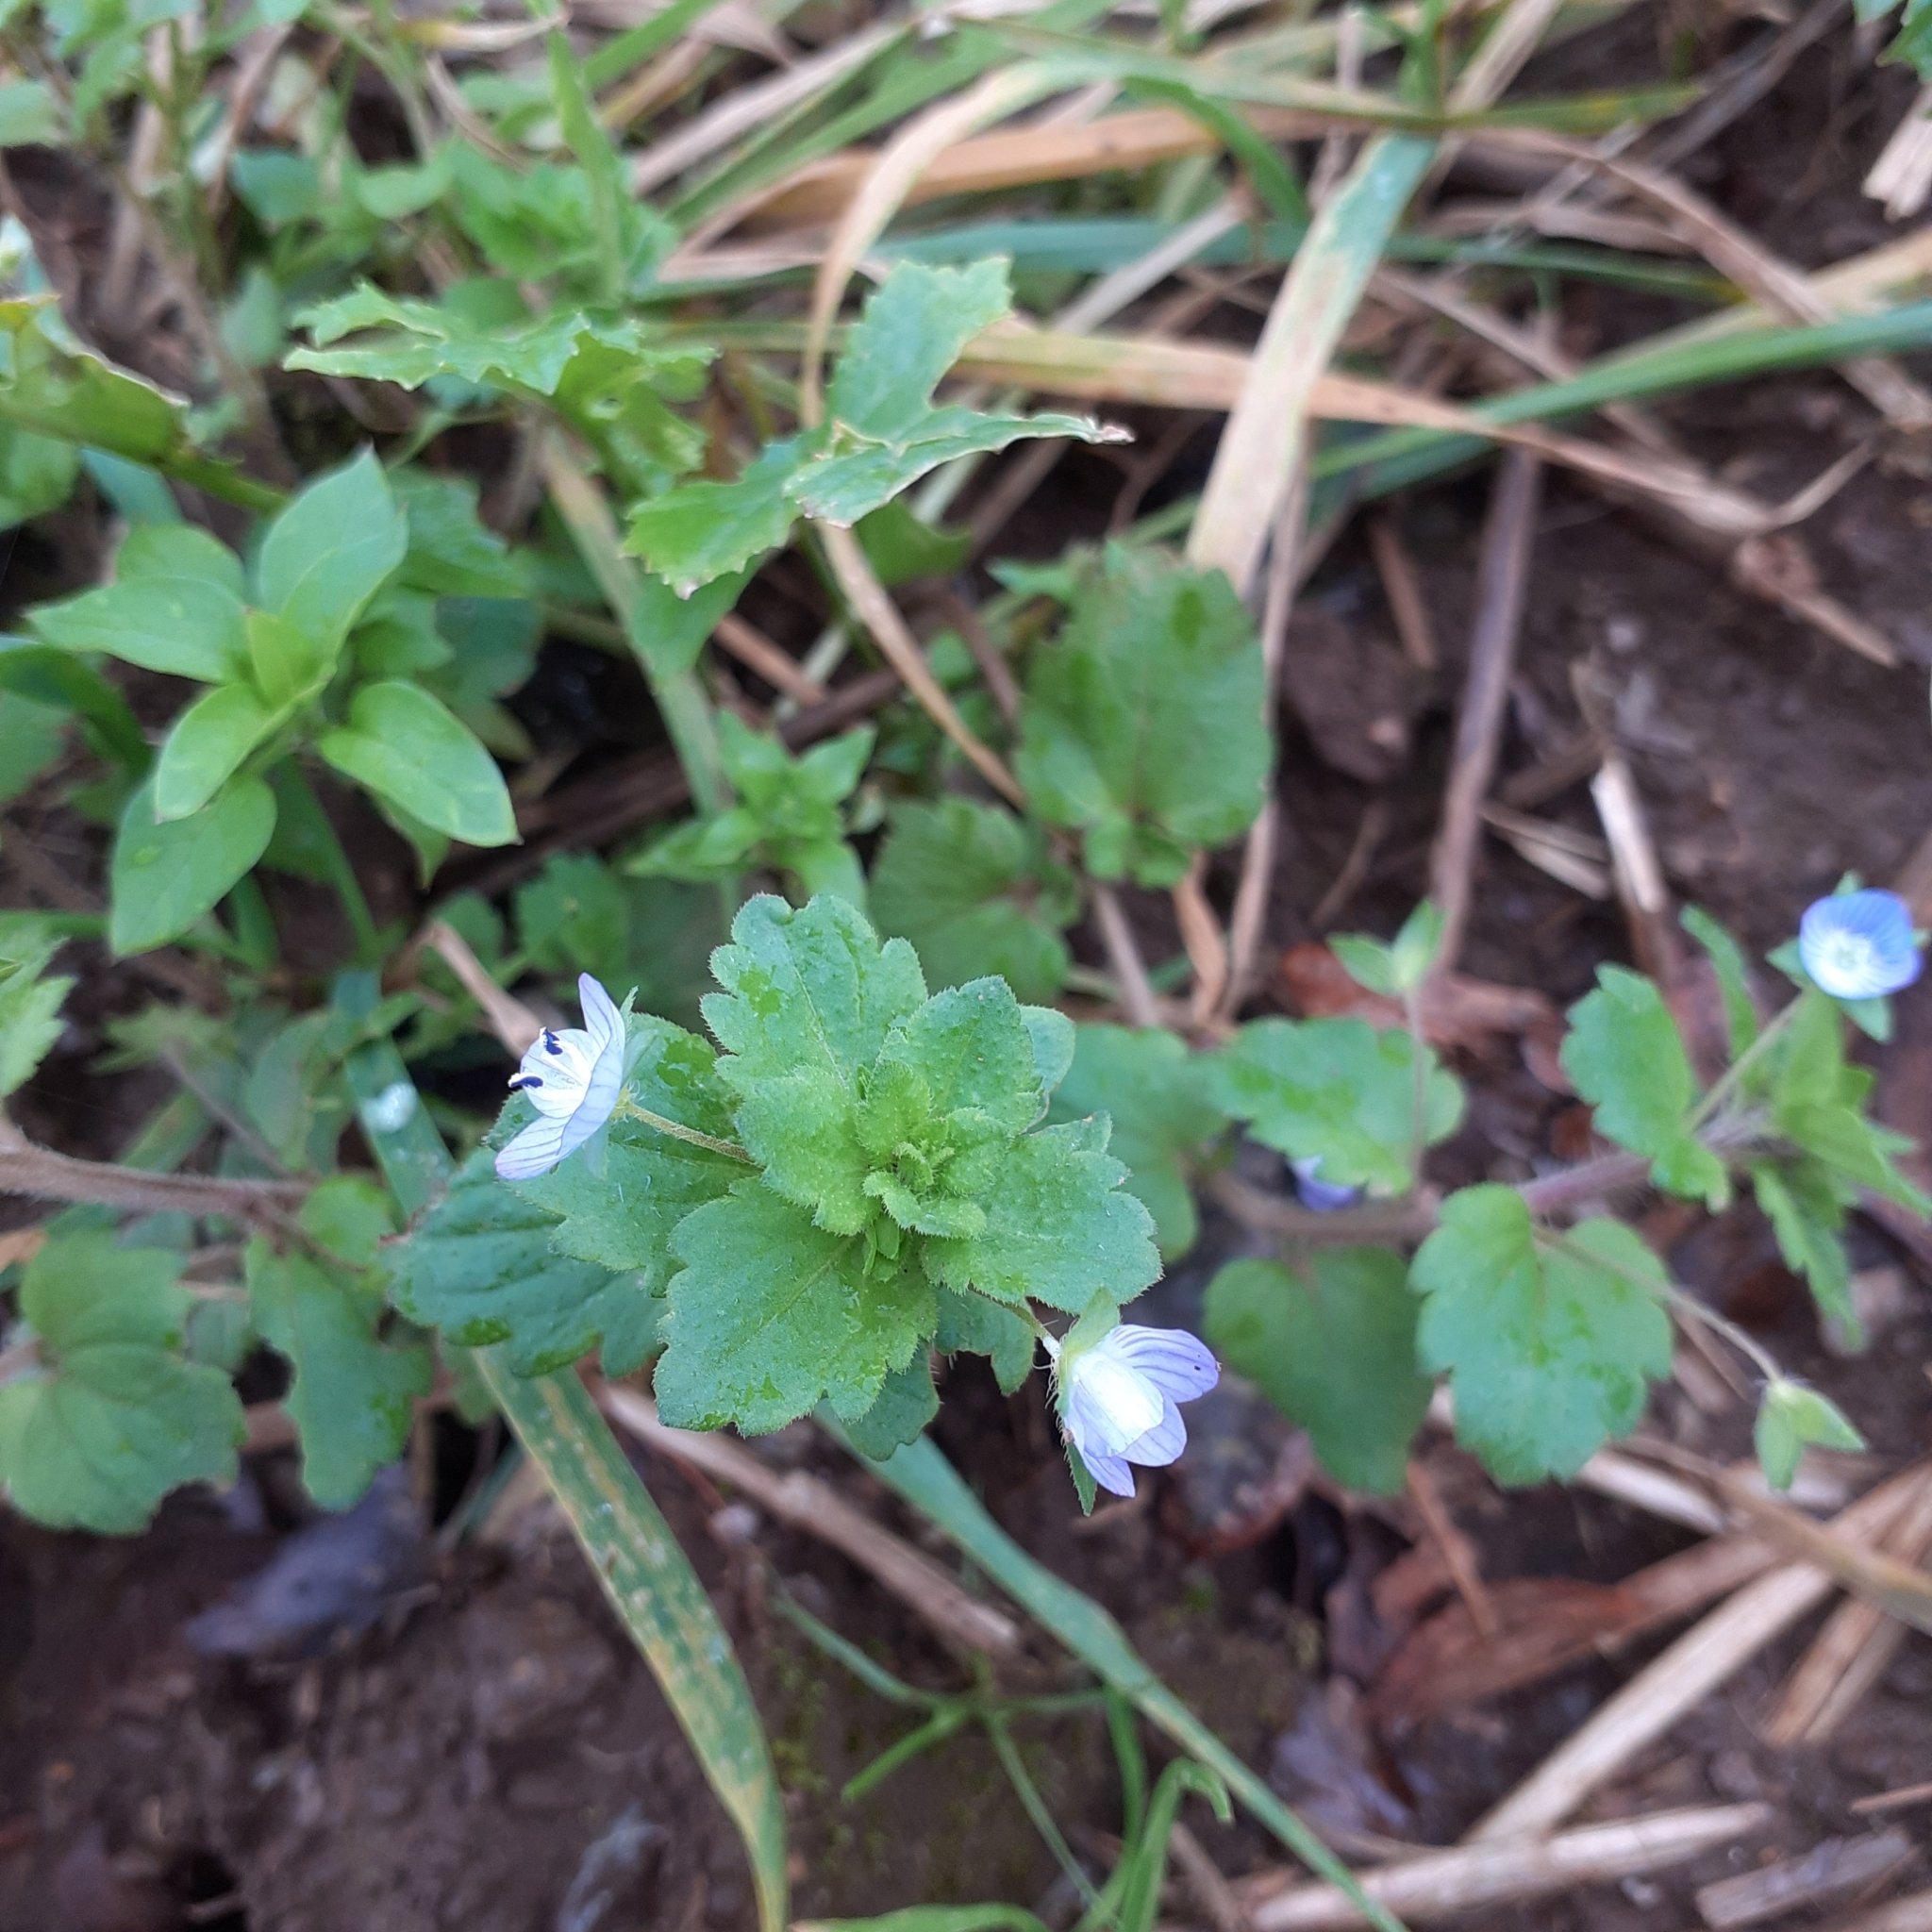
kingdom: Plantae
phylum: Tracheophyta
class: Magnoliopsida
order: Lamiales
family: Plantaginaceae
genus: Veronica
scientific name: Veronica persica
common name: Common field-speedwell
